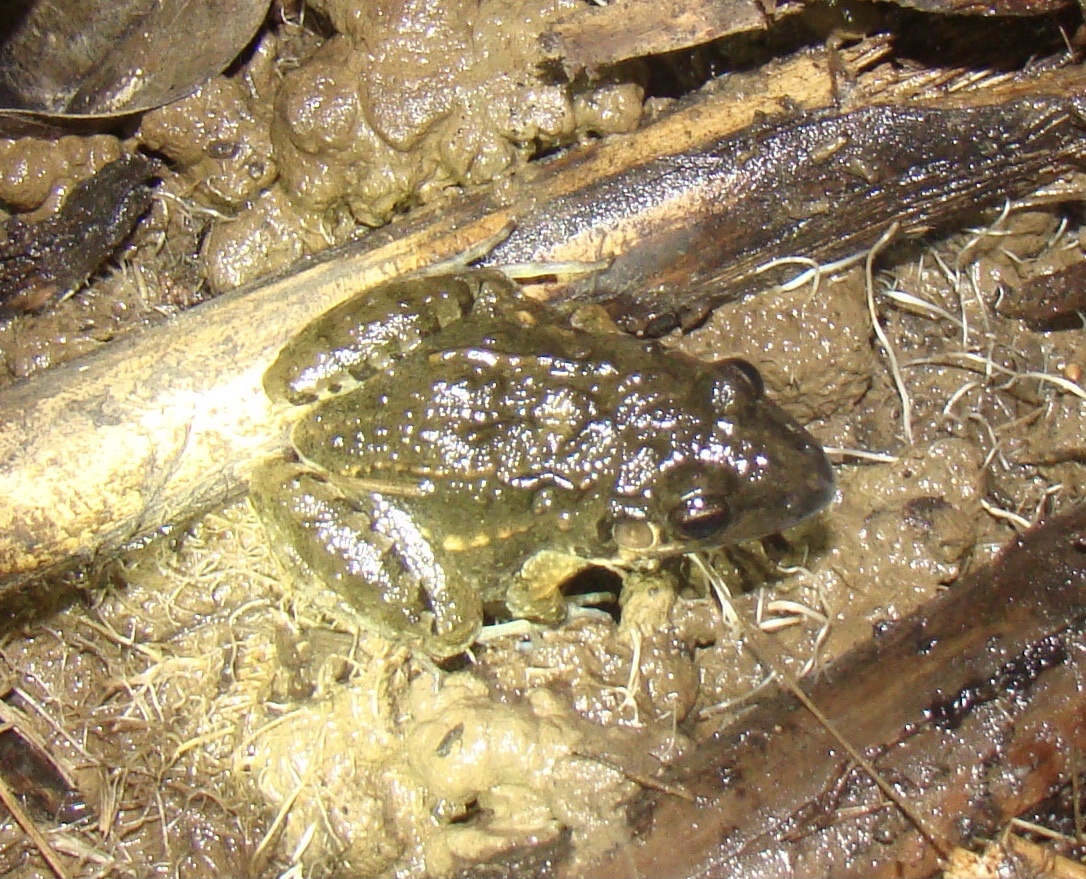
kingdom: Animalia
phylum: Chordata
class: Amphibia
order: Anura
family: Leptodactylidae
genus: Leptodactylus
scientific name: Leptodactylus fragilis
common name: Mexican white-lipped frog
